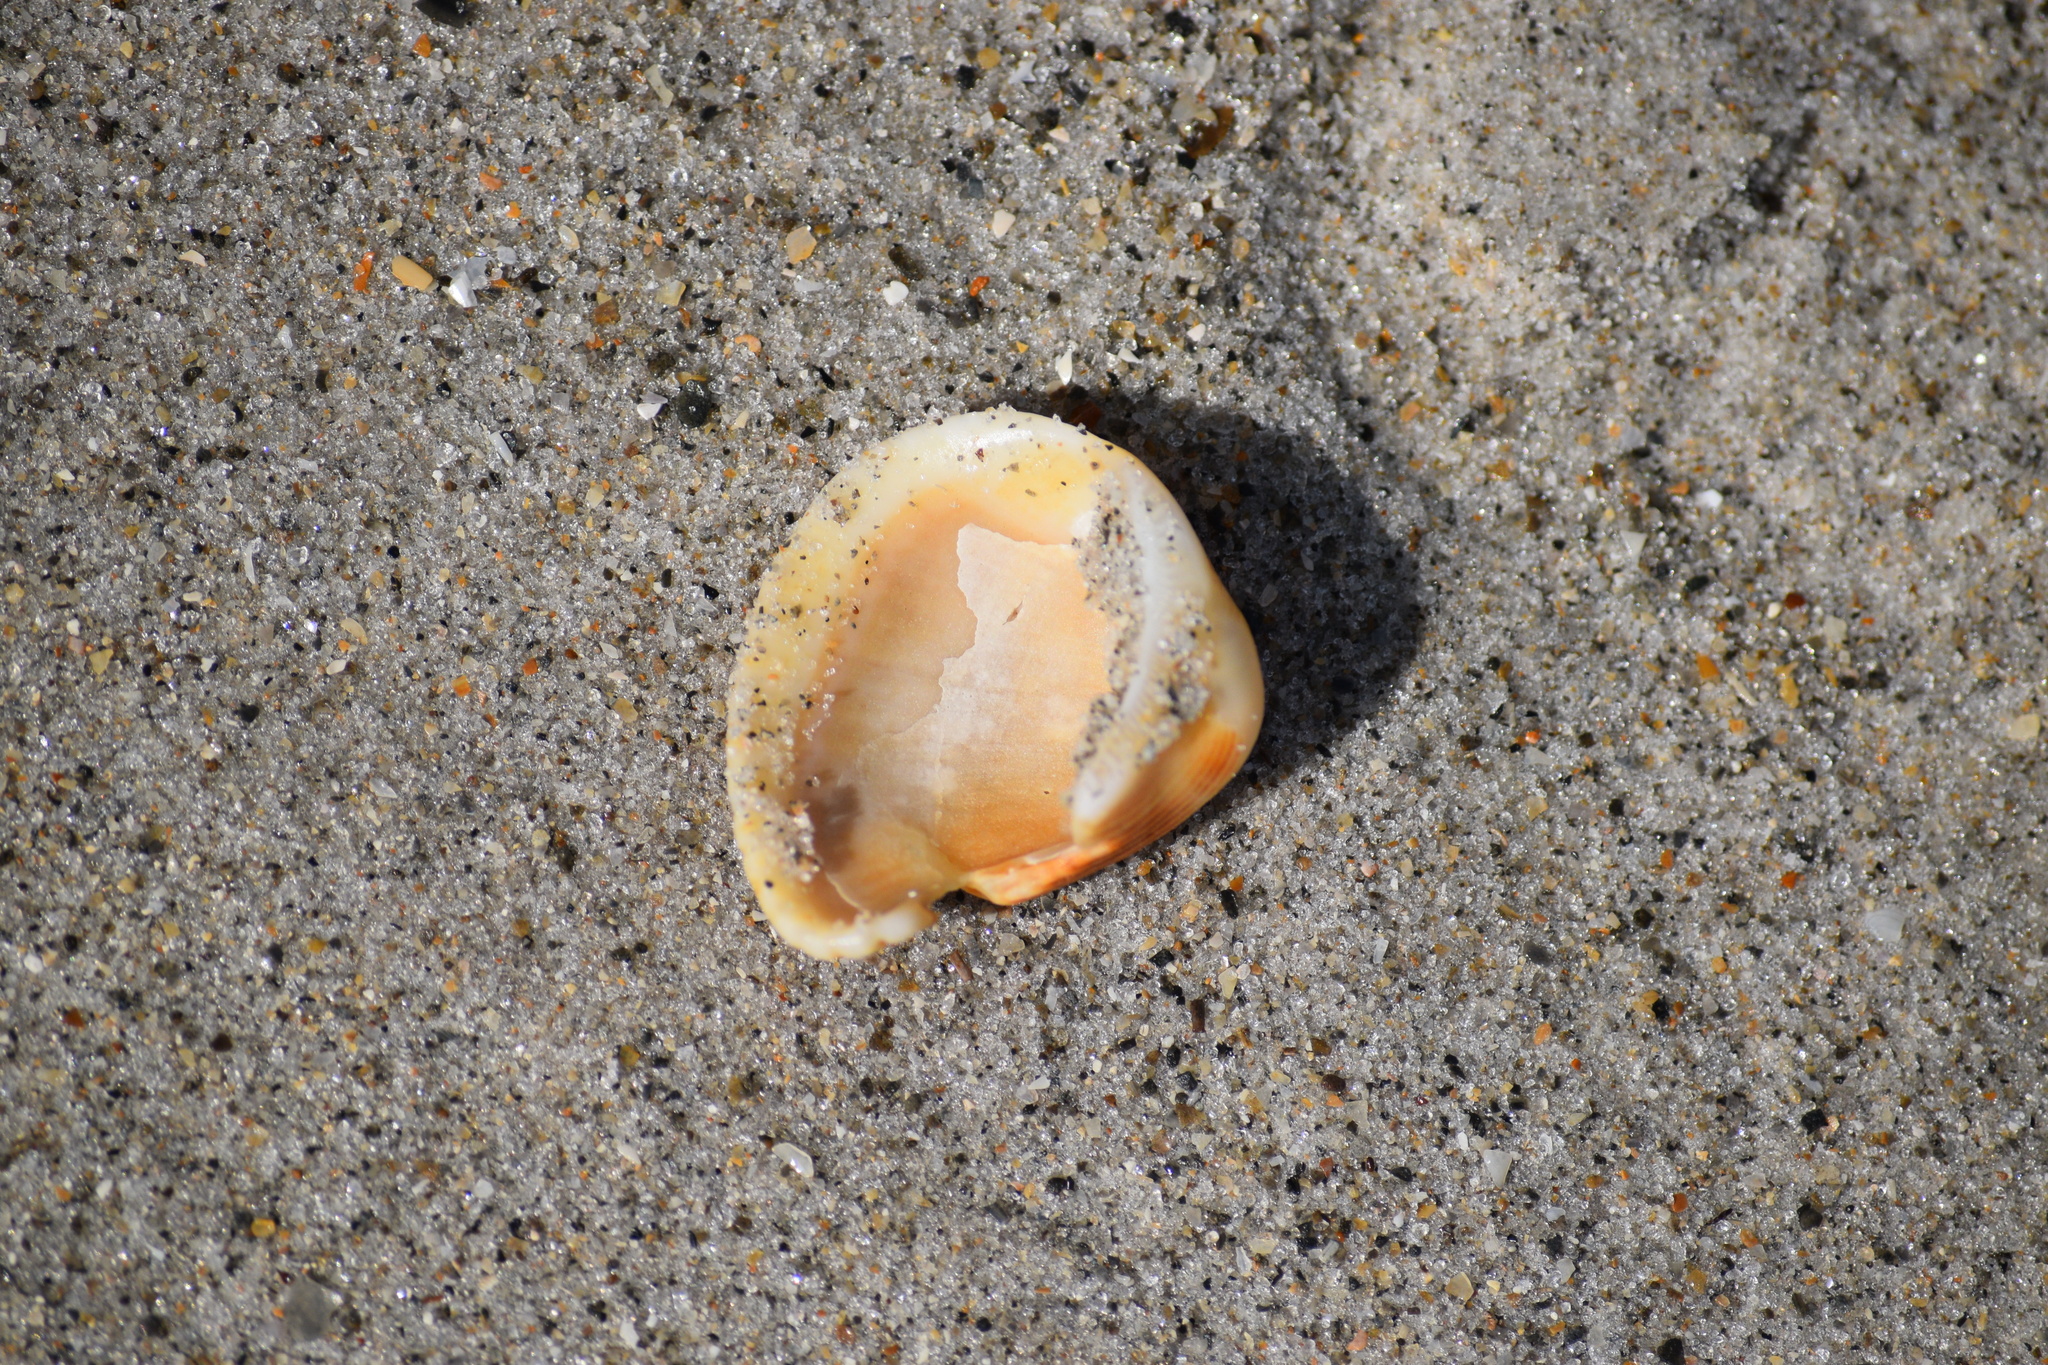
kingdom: Animalia
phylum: Mollusca
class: Bivalvia
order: Arcida
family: Noetiidae
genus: Noetia
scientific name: Noetia ponderosa
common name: Ponderous ark
